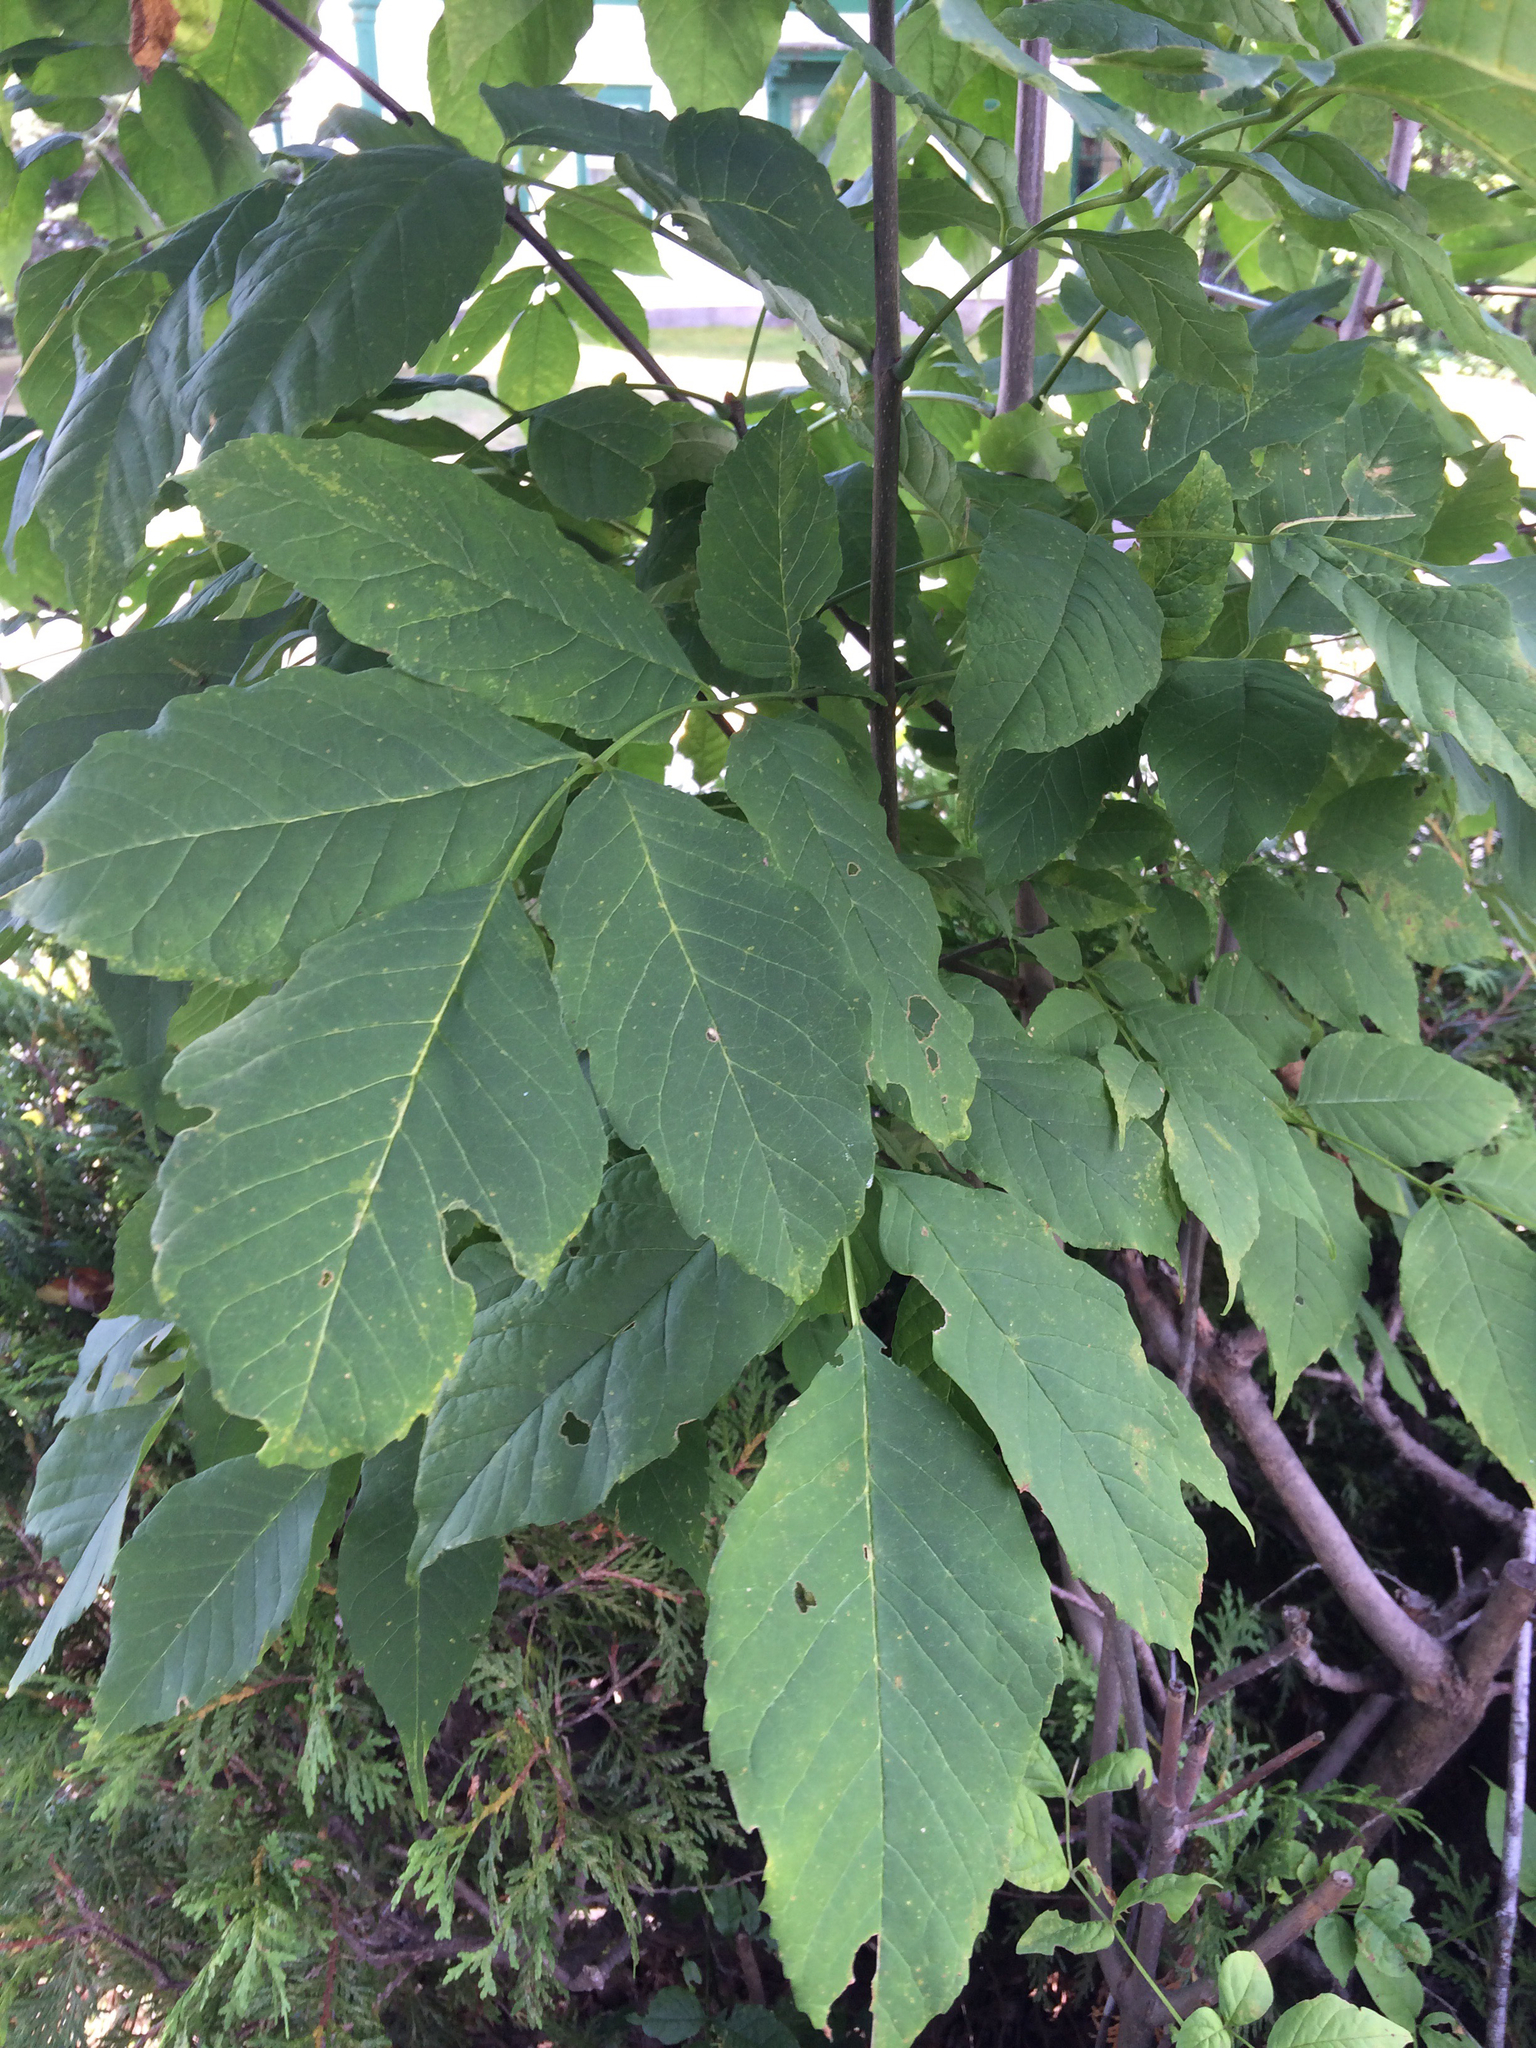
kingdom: Plantae
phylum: Tracheophyta
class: Magnoliopsida
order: Lamiales
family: Oleaceae
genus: Fraxinus
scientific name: Fraxinus americana
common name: White ash
